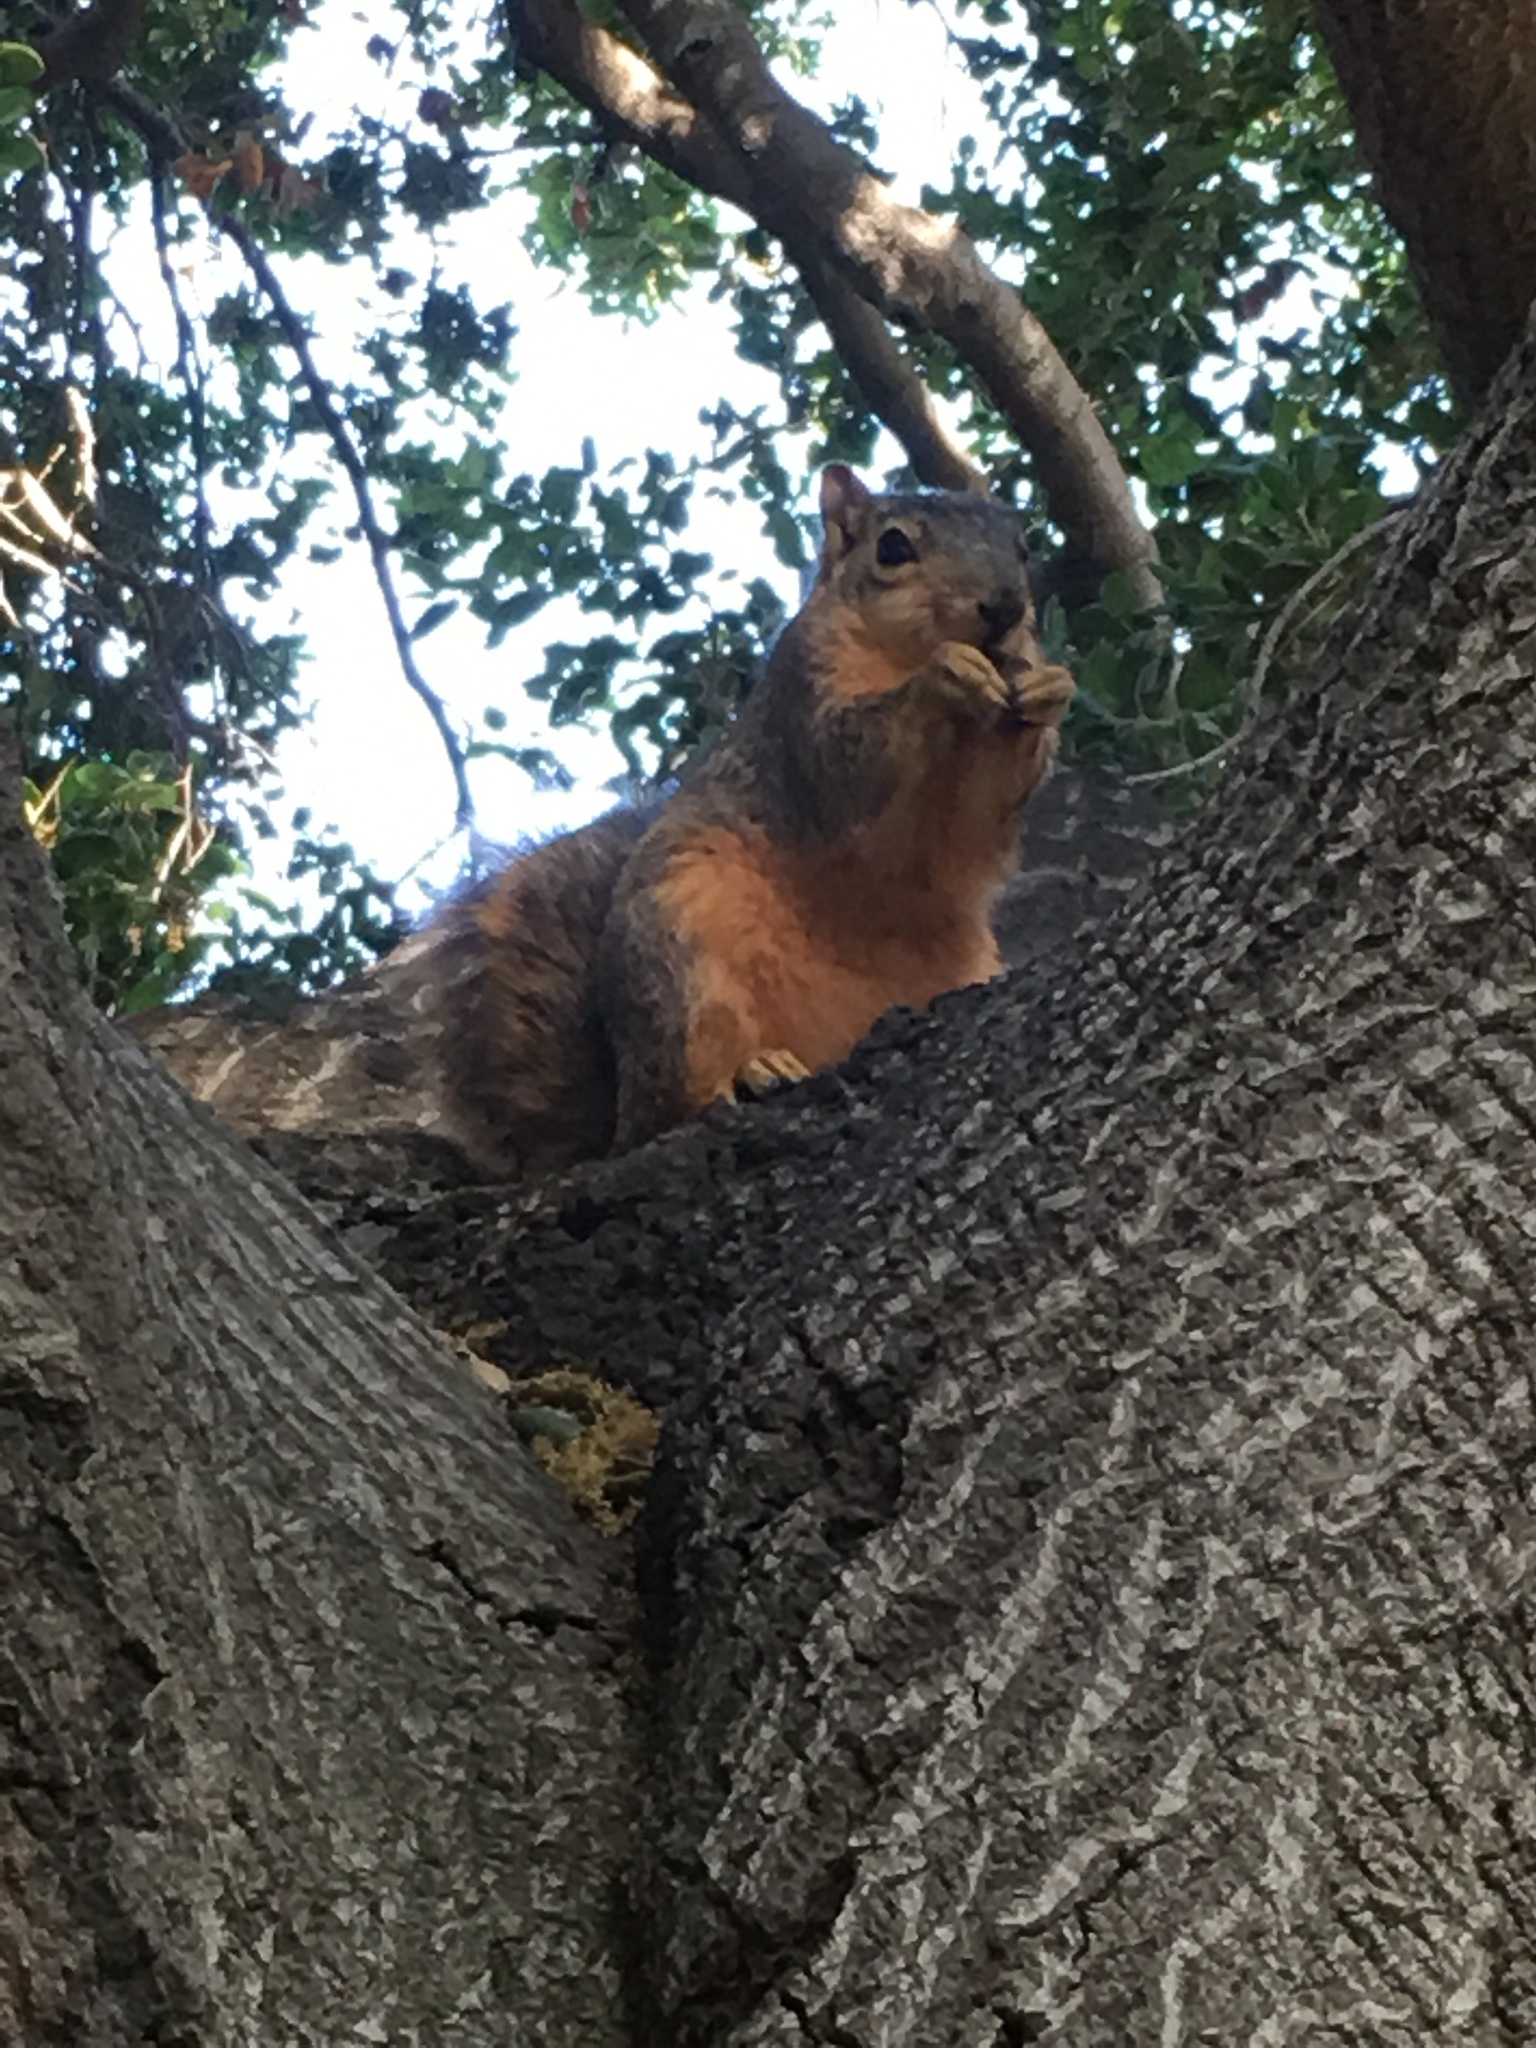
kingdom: Animalia
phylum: Chordata
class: Mammalia
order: Rodentia
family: Sciuridae
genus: Sciurus
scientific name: Sciurus niger
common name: Fox squirrel
